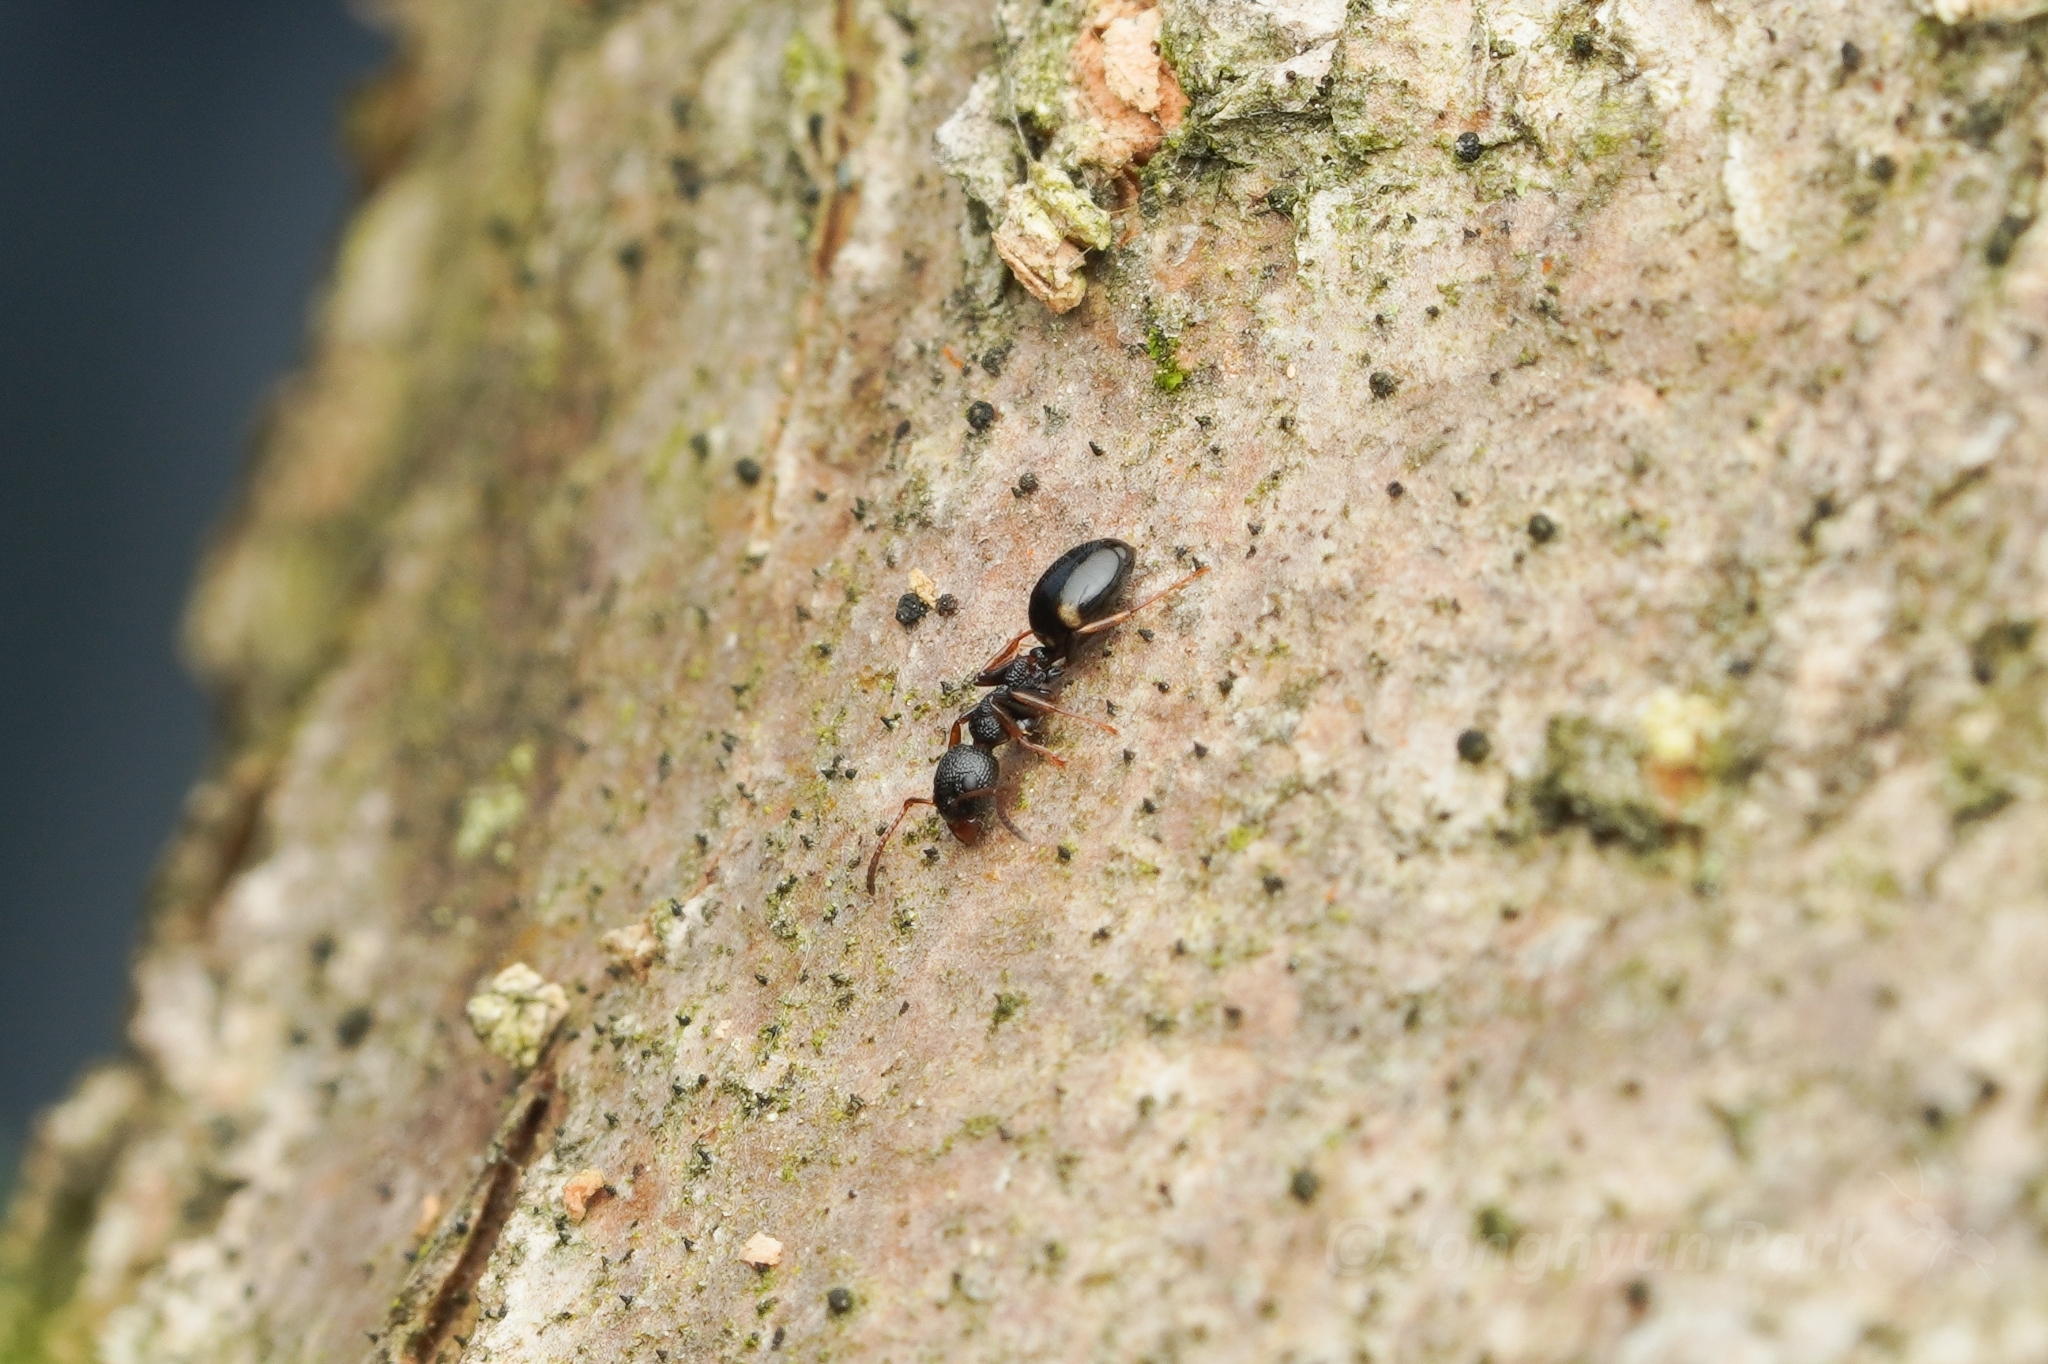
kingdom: Animalia
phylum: Arthropoda
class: Insecta
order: Hymenoptera
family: Formicidae
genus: Dolichoderus
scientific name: Dolichoderus sibiricus
